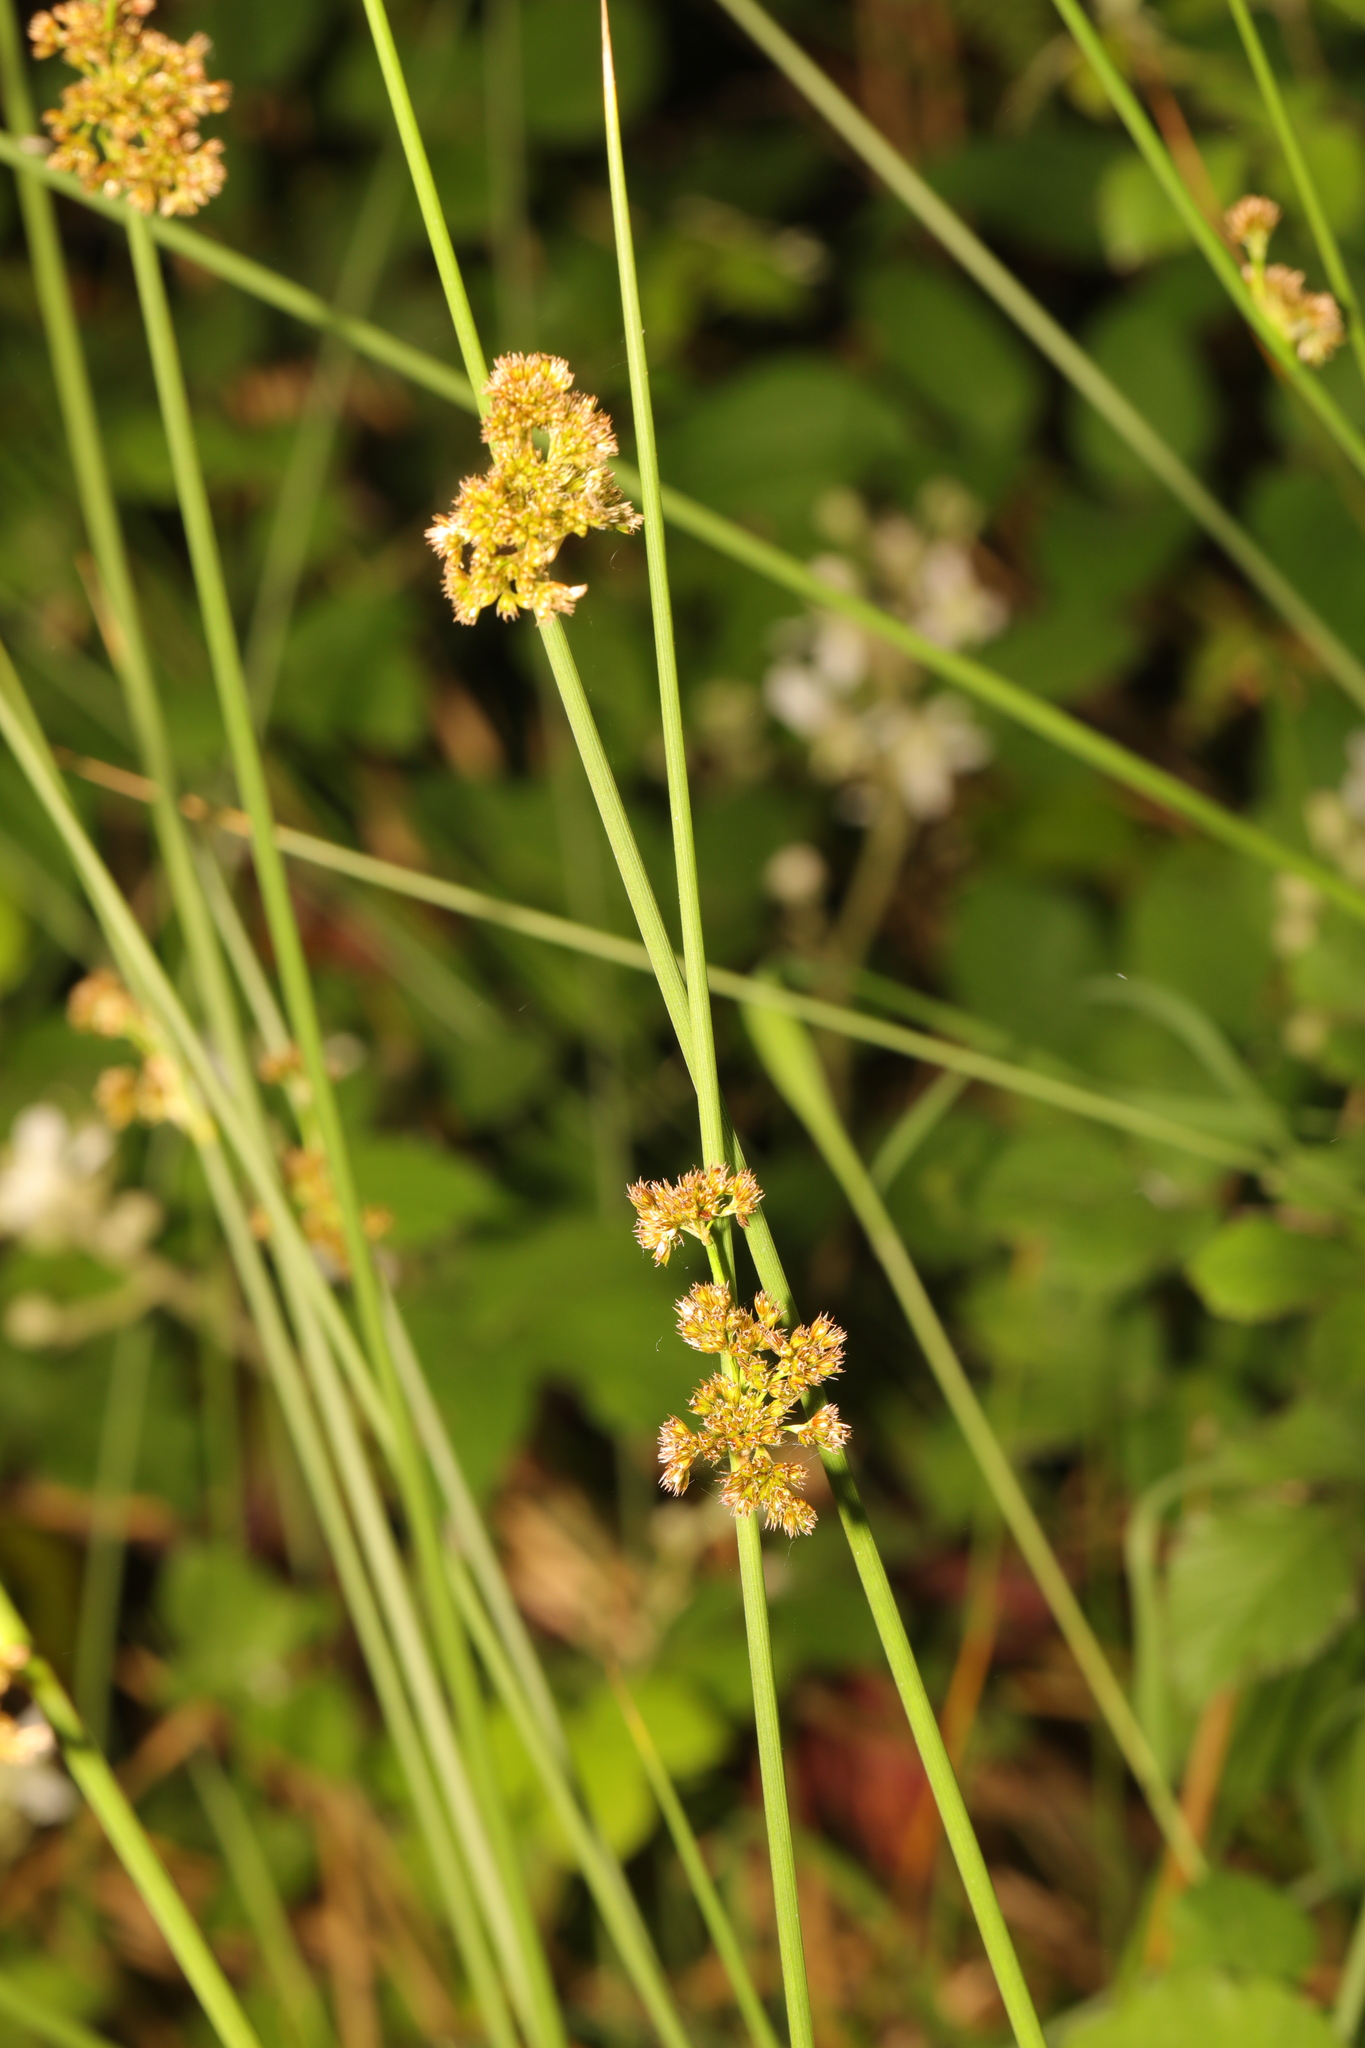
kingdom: Plantae
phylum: Tracheophyta
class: Liliopsida
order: Poales
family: Juncaceae
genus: Juncus
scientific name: Juncus effusus
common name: Soft rush
